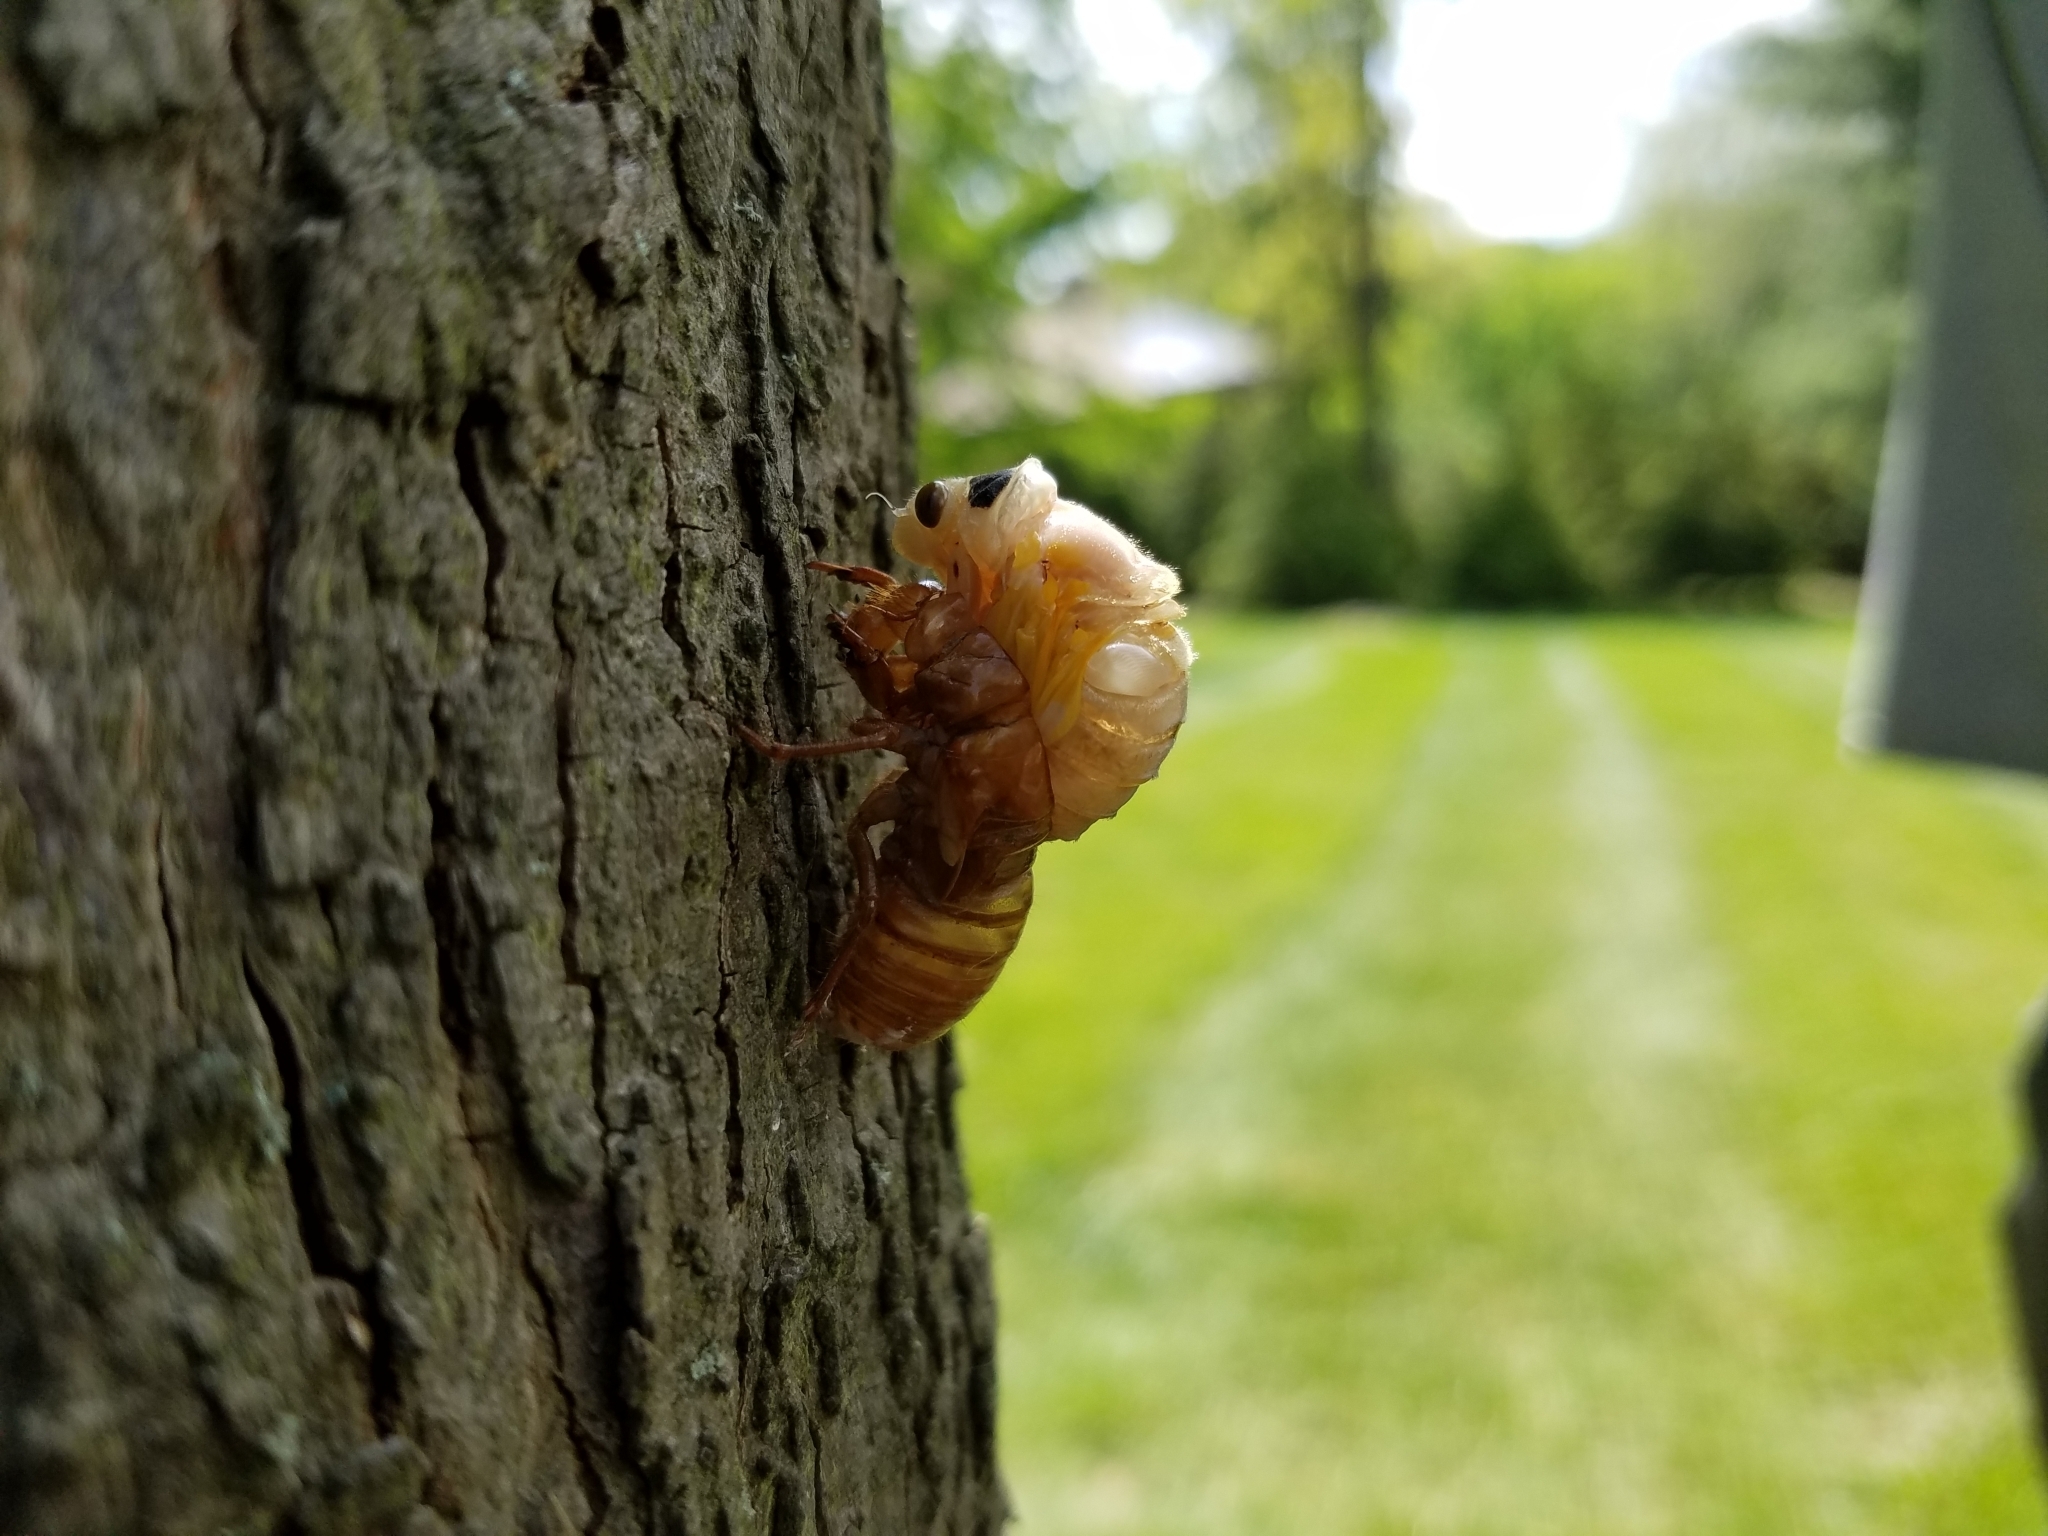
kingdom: Animalia
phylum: Arthropoda
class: Insecta
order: Hemiptera
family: Cicadidae
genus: Magicicada
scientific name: Magicicada septendecim
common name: Periodical cicada
